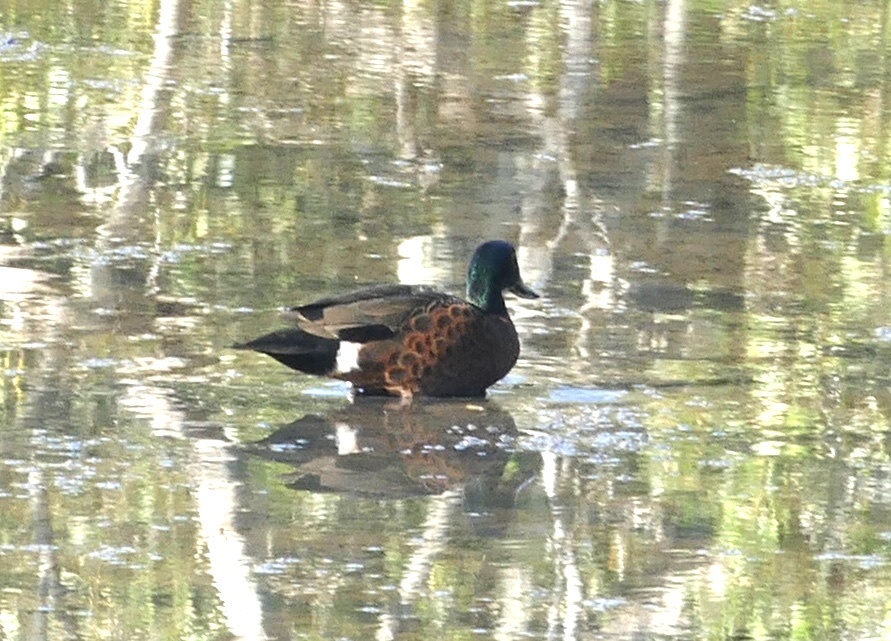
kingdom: Animalia
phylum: Chordata
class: Aves
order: Anseriformes
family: Anatidae
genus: Anas
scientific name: Anas castanea
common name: Chestnut teal
